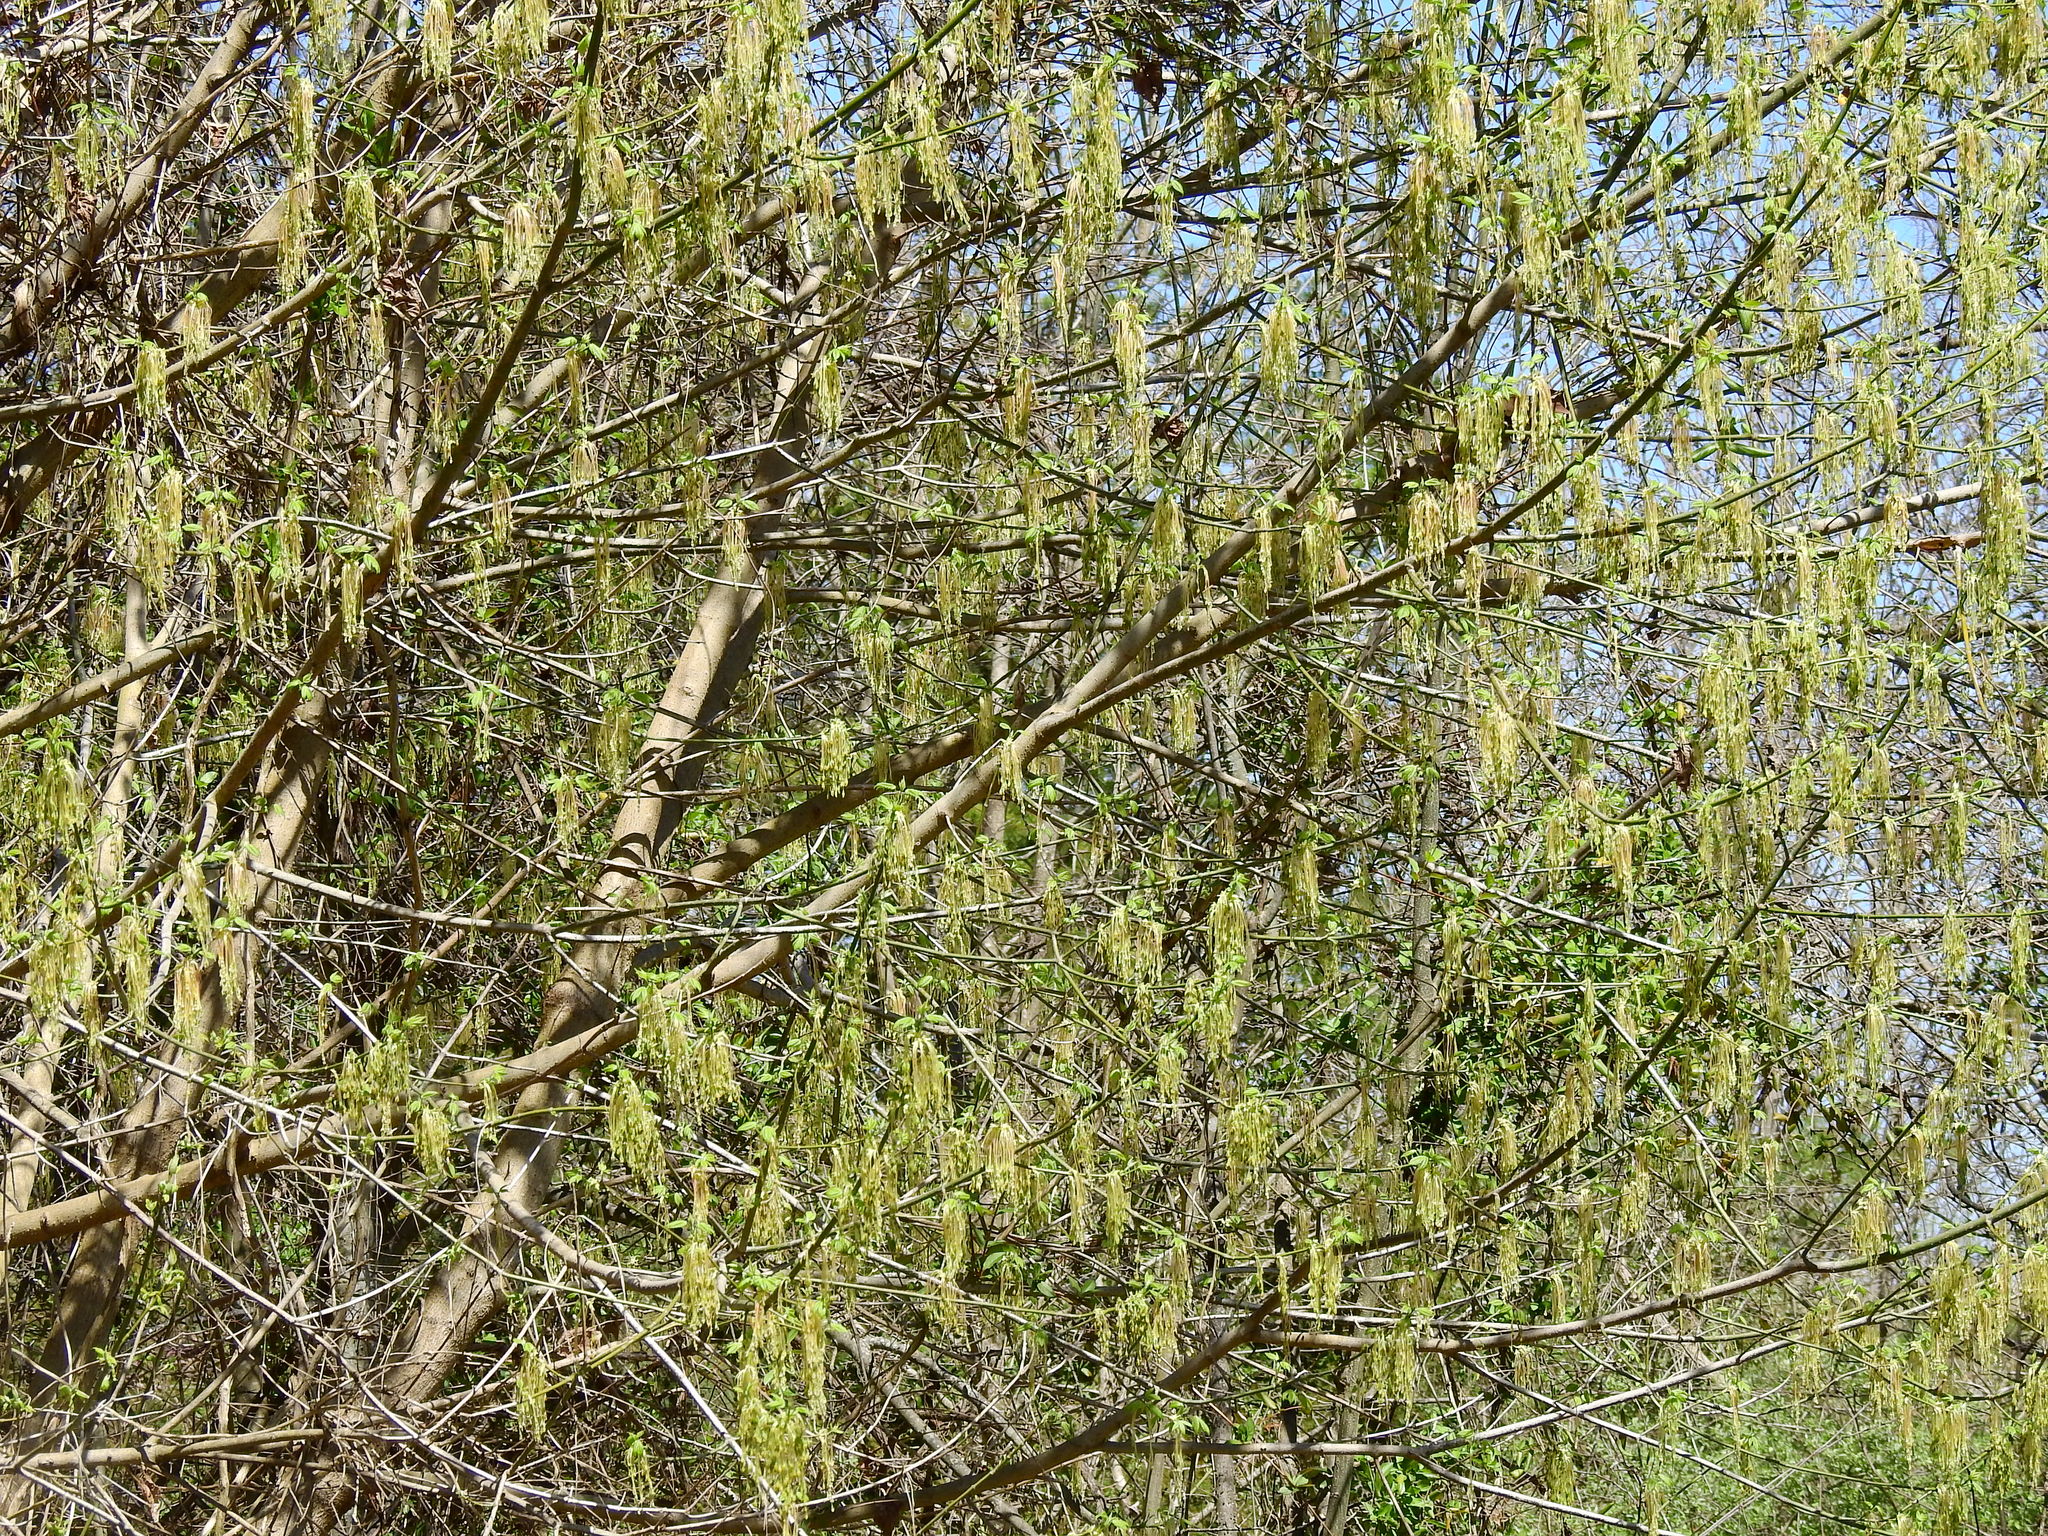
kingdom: Plantae
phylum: Tracheophyta
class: Magnoliopsida
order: Sapindales
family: Sapindaceae
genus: Acer
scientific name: Acer negundo
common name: Ashleaf maple
